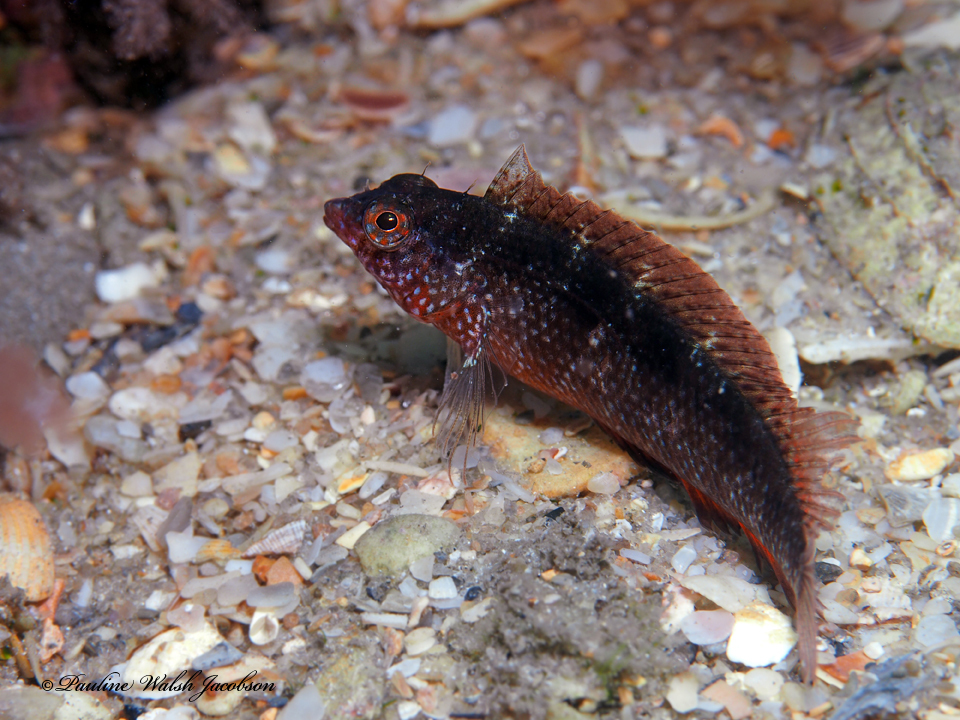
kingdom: Animalia
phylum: Chordata
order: Perciformes
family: Labrisomidae
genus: Malacoctenus
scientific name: Malacoctenus macropus
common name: Rosy blenny
